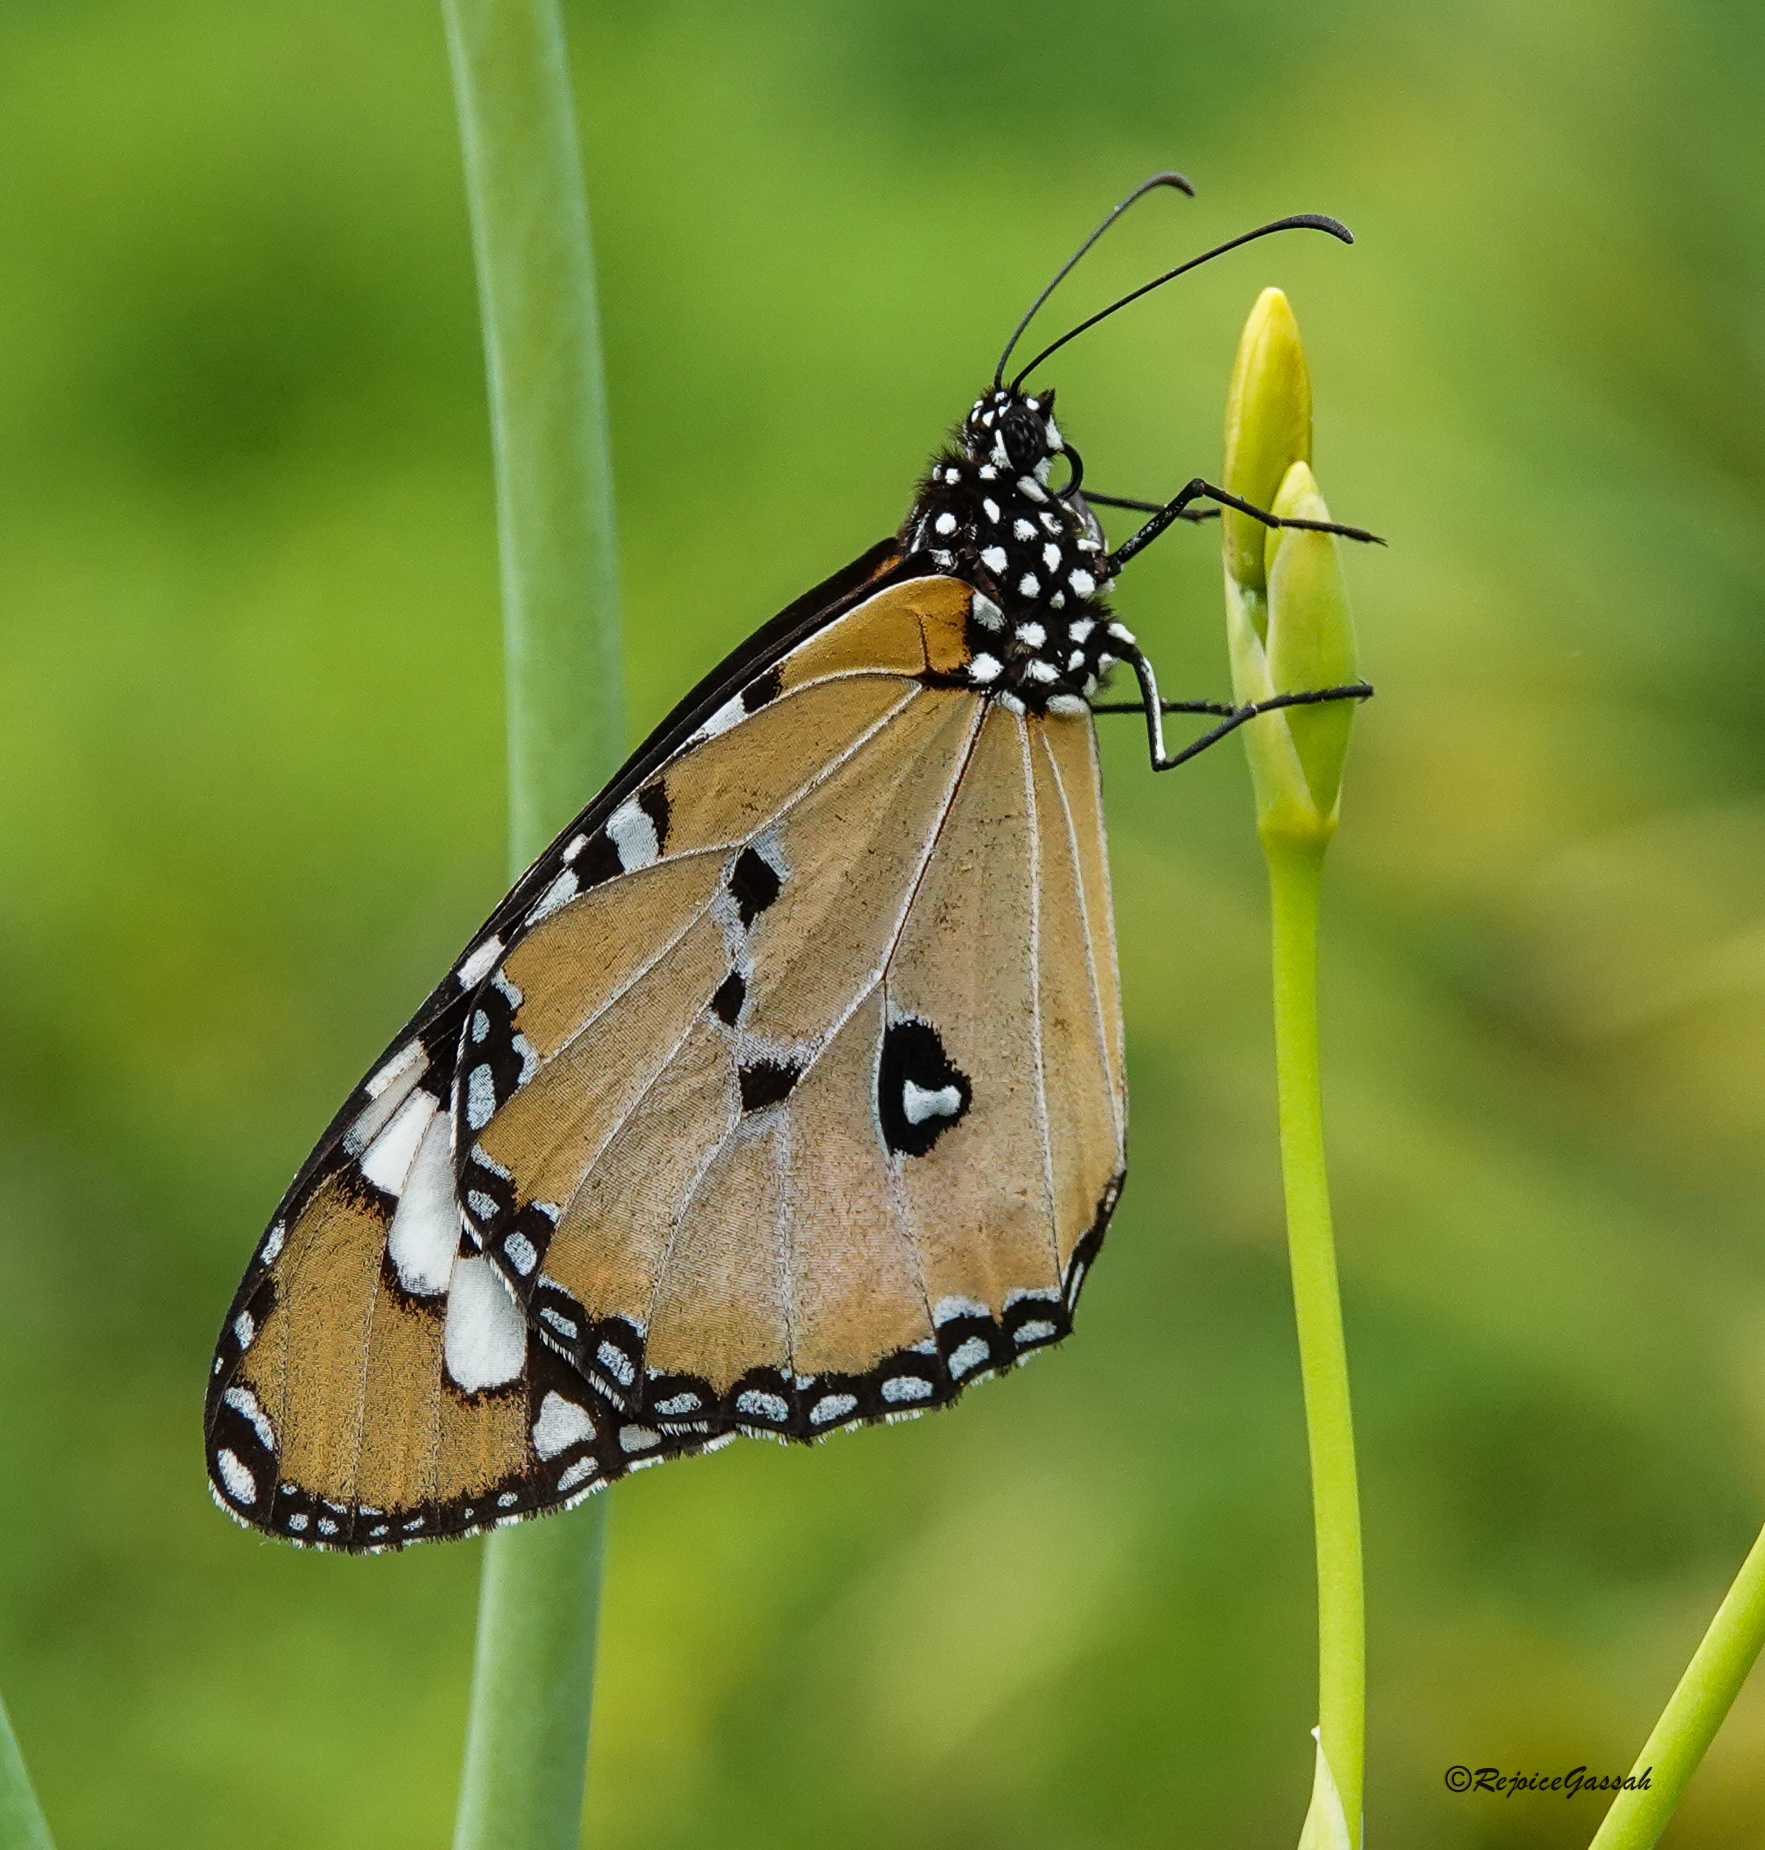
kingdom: Animalia
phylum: Arthropoda
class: Insecta
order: Lepidoptera
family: Nymphalidae
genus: Danaus
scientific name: Danaus chrysippus
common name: Plain tiger
